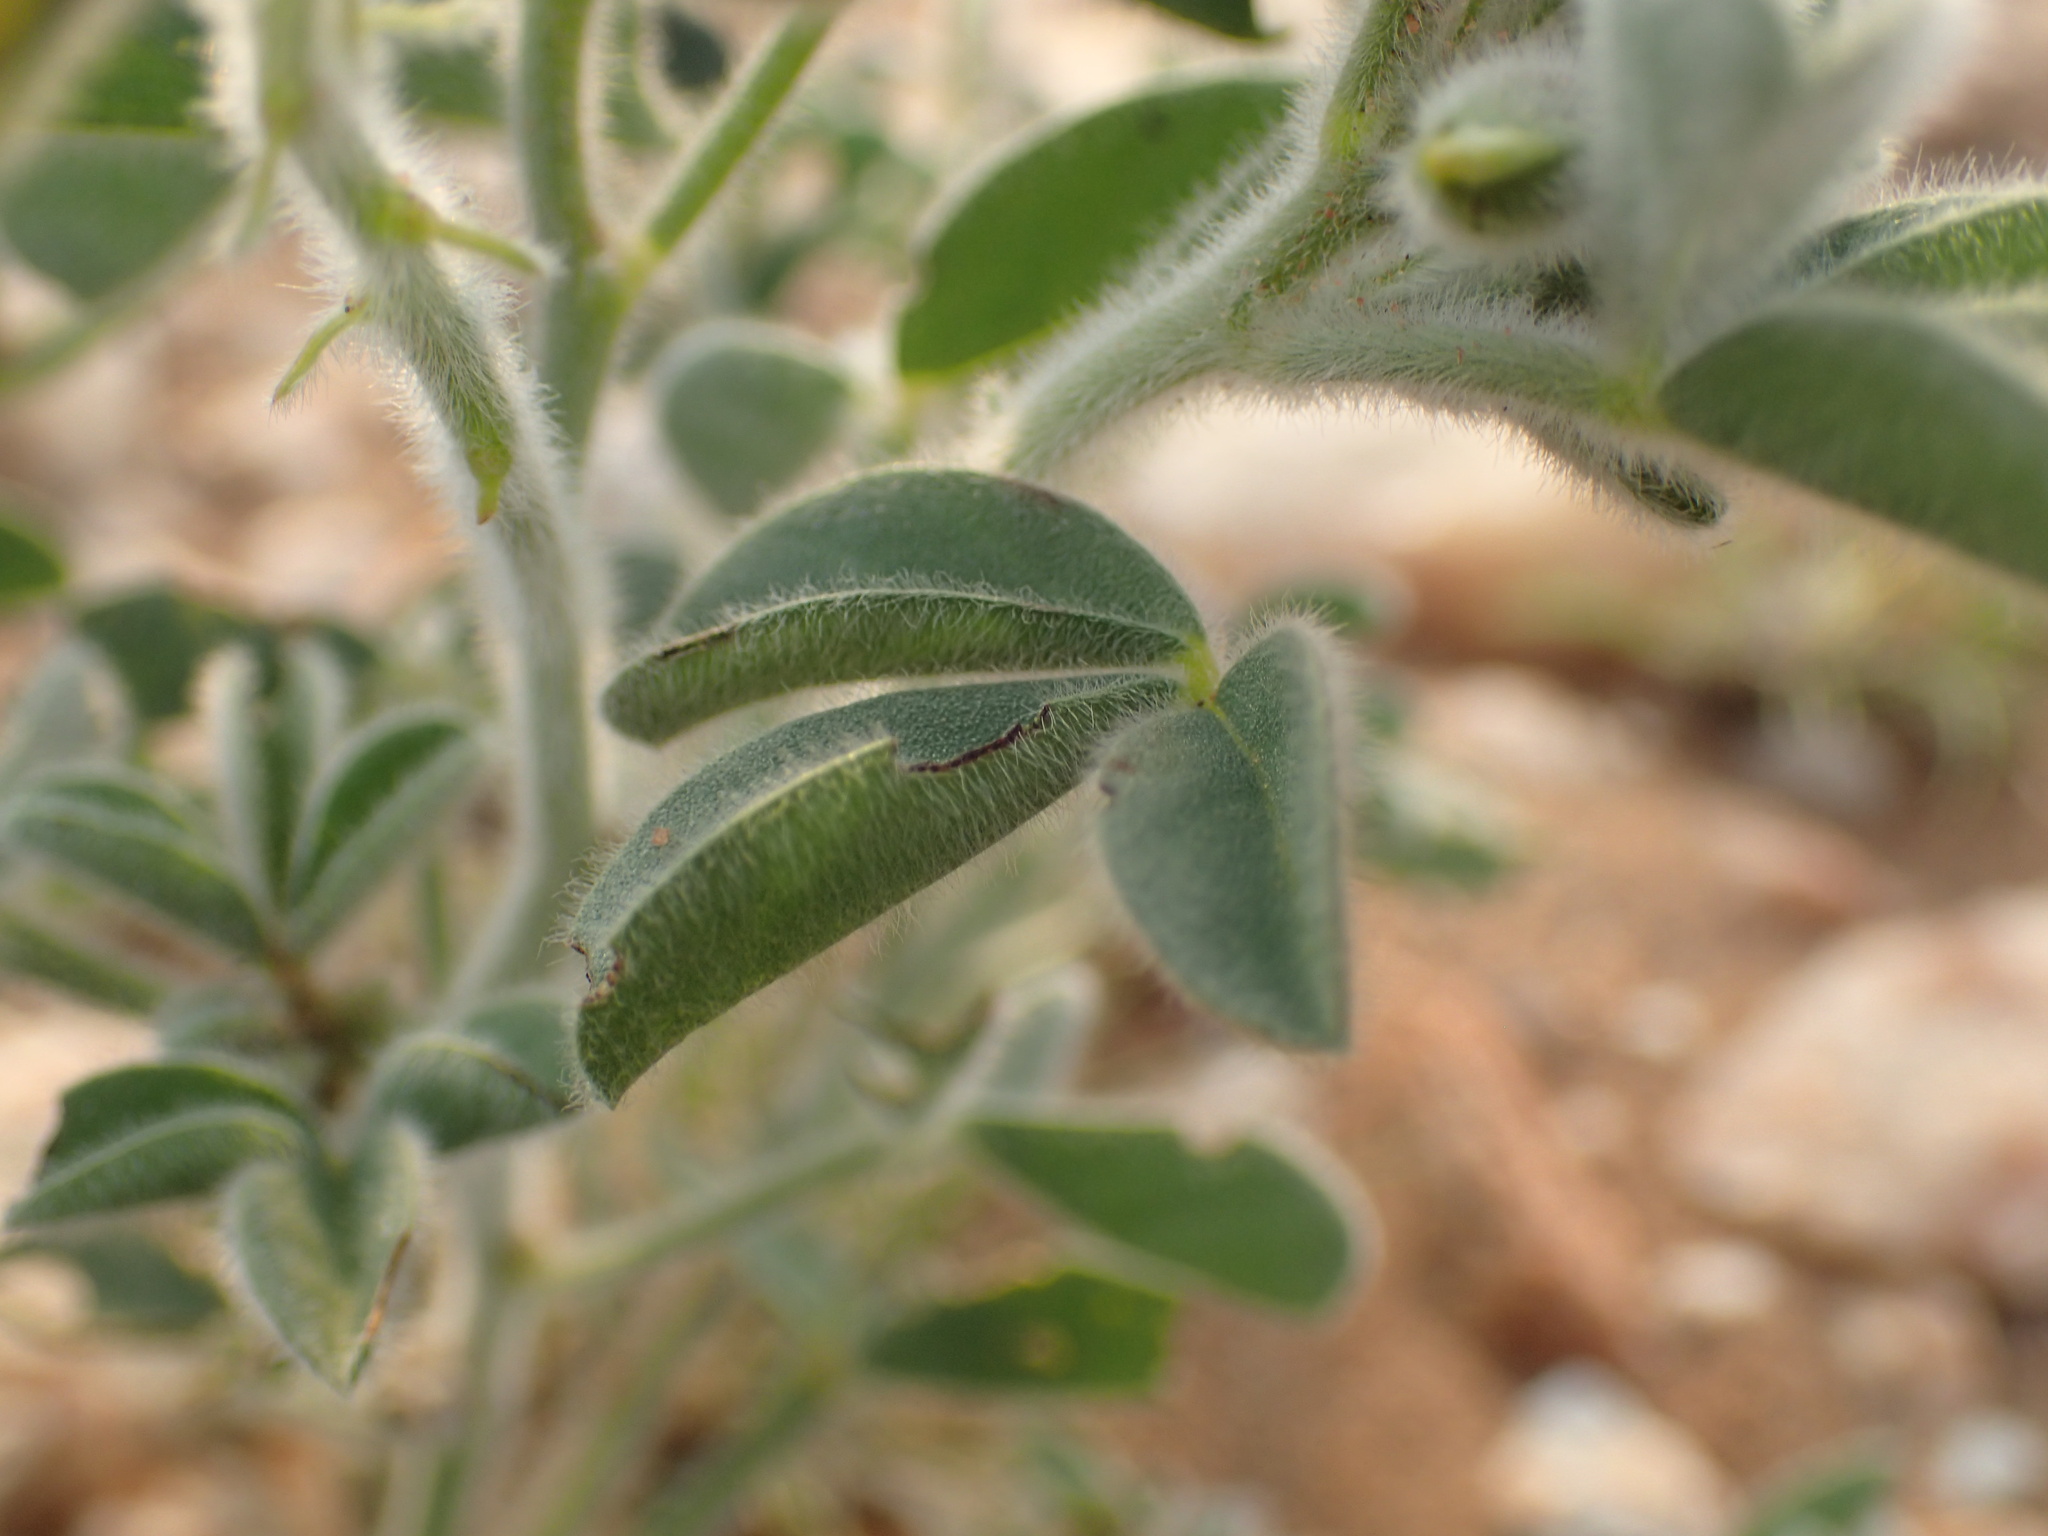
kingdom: Plantae
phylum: Tracheophyta
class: Magnoliopsida
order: Fabales
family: Fabaceae
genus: Crotalaria
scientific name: Crotalaria colorata
